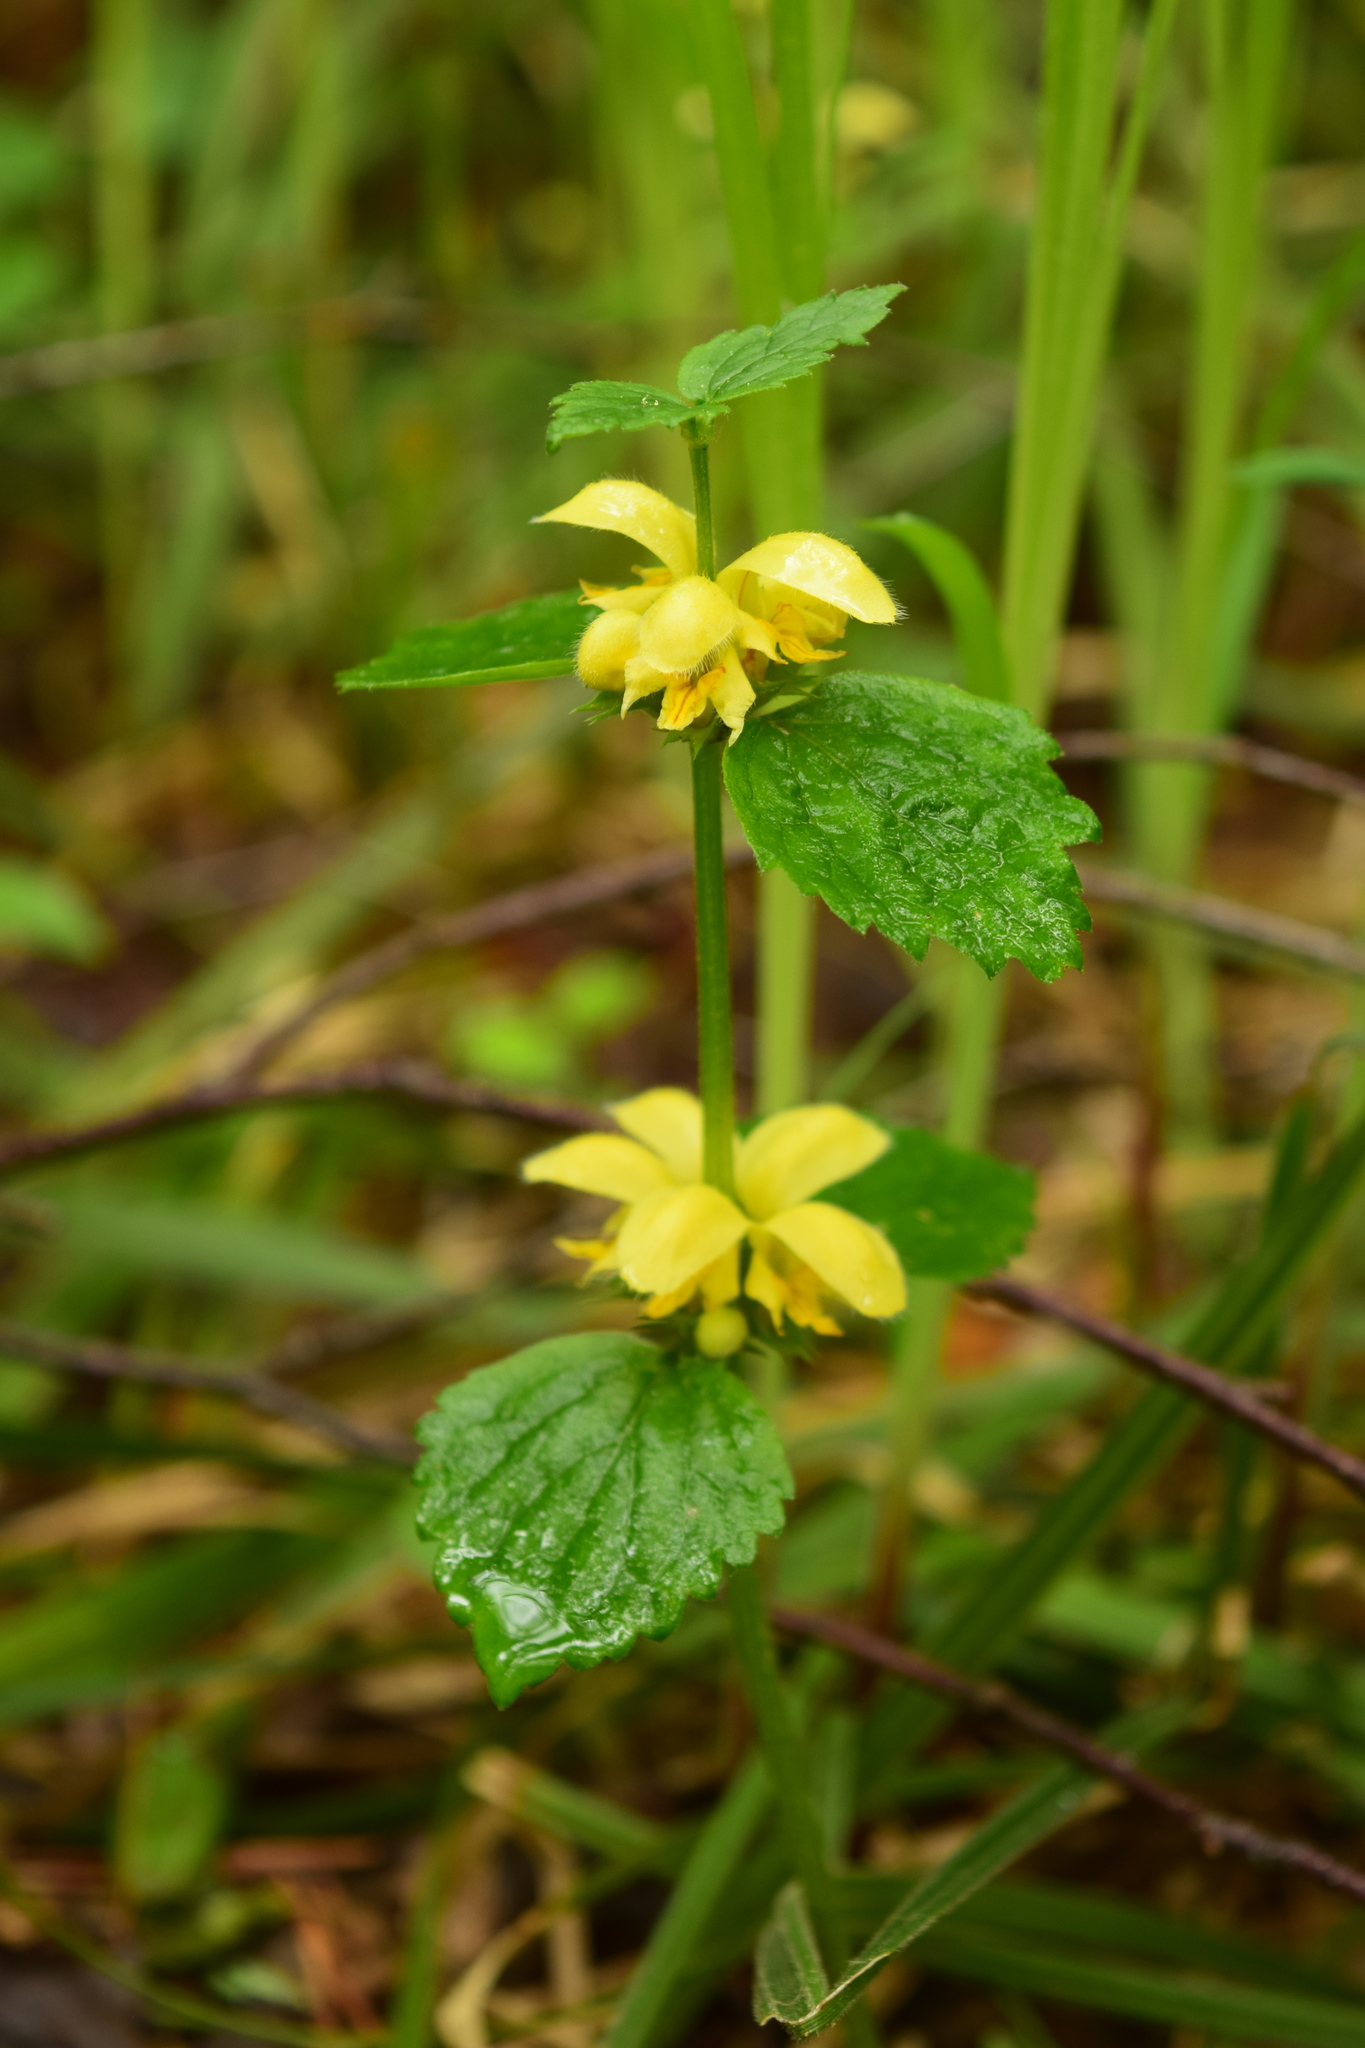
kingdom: Plantae
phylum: Tracheophyta
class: Magnoliopsida
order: Lamiales
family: Lamiaceae
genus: Lamium
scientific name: Lamium galeobdolon
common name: Yellow archangel
